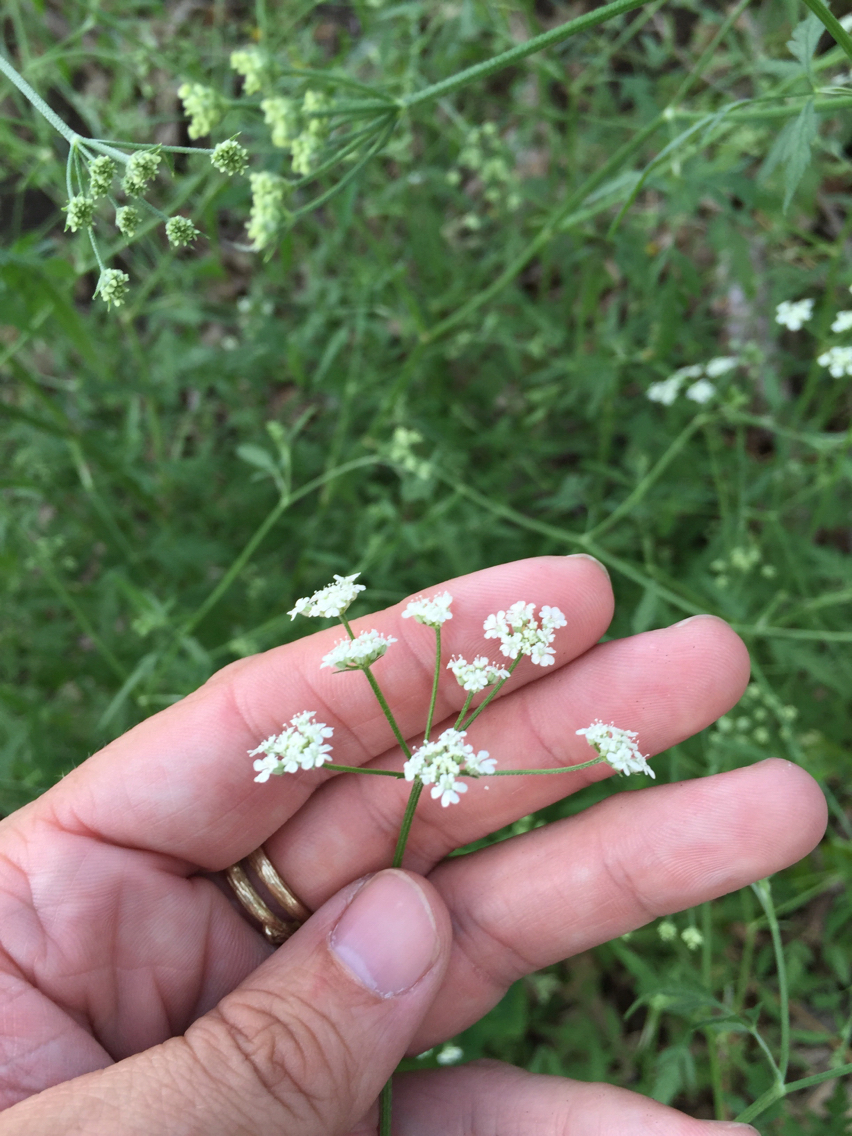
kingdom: Plantae
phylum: Tracheophyta
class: Magnoliopsida
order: Apiales
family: Apiaceae
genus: Torilis
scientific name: Torilis arvensis
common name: Spreading hedge-parsley
